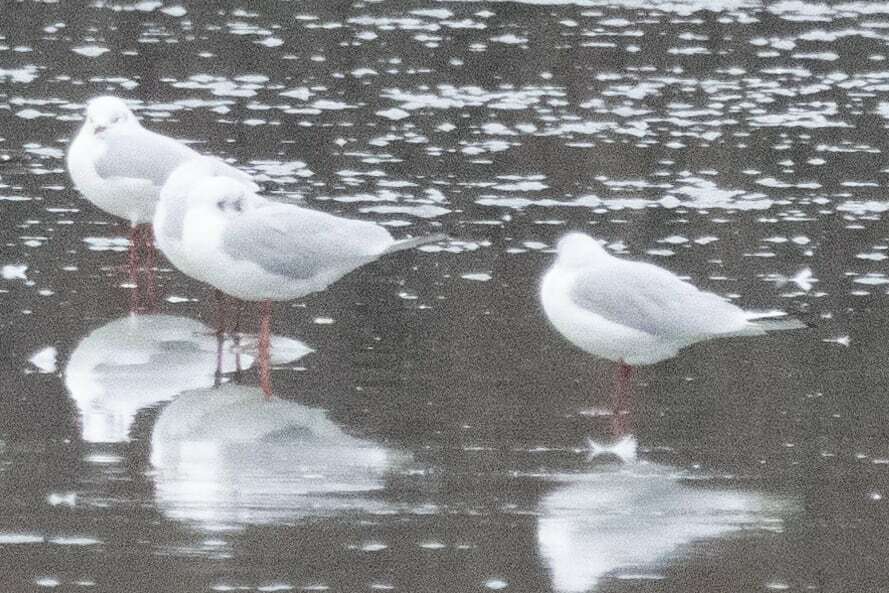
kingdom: Animalia
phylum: Chordata
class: Aves
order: Charadriiformes
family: Laridae
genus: Chroicocephalus
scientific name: Chroicocephalus ridibundus
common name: Black-headed gull
